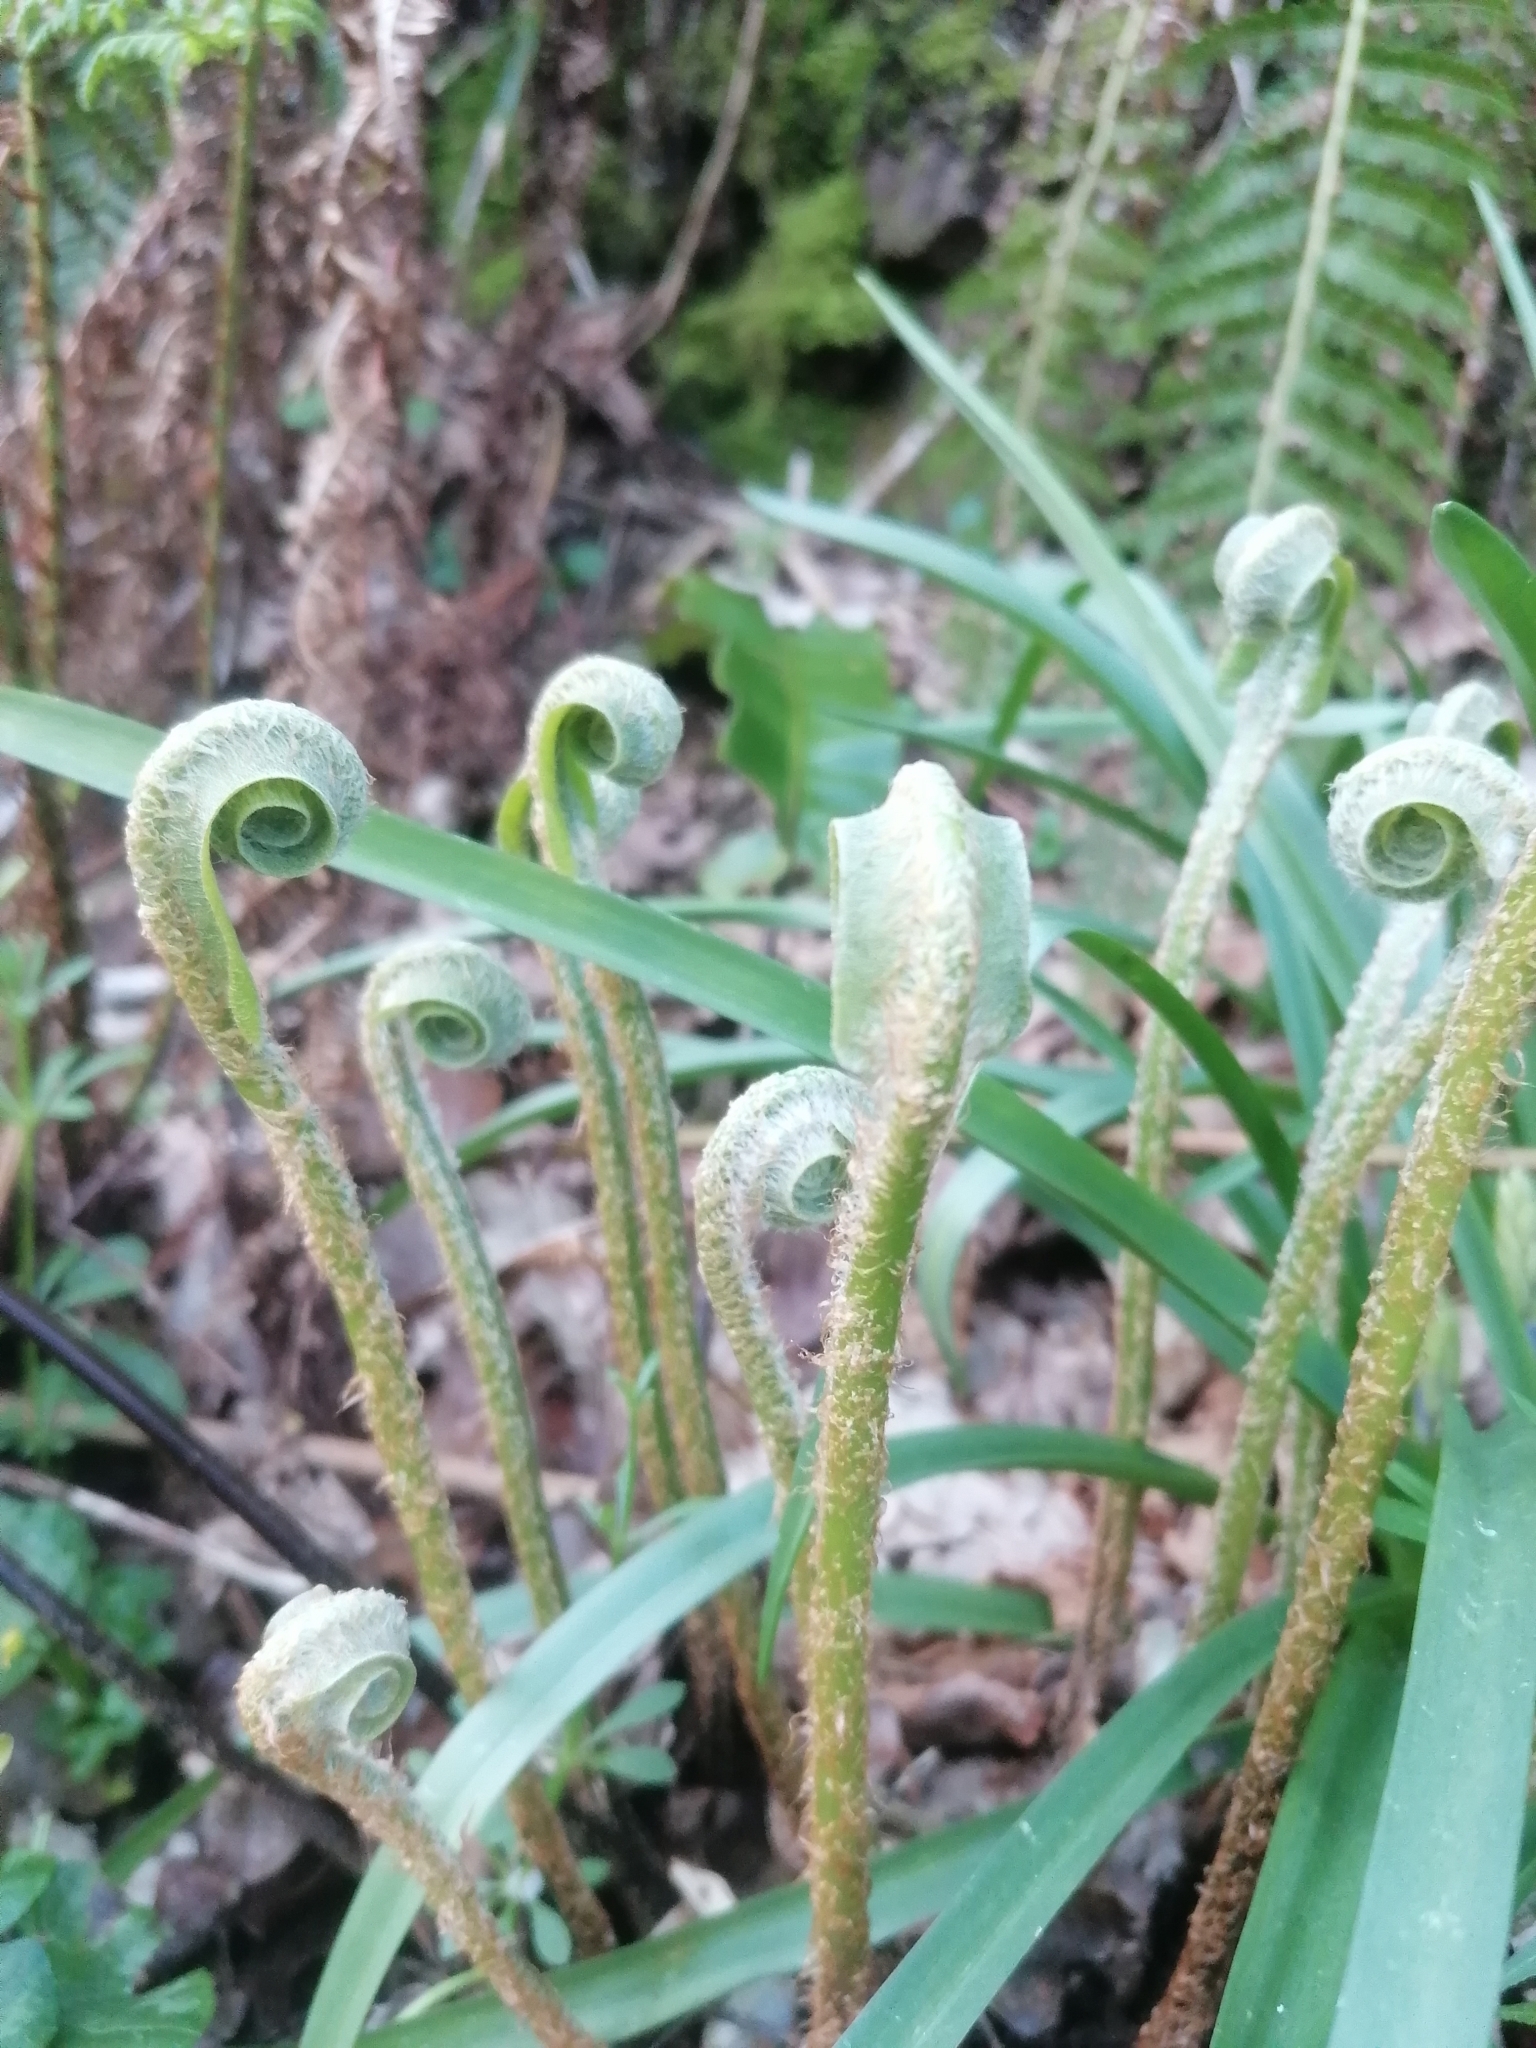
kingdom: Plantae
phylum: Tracheophyta
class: Polypodiopsida
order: Polypodiales
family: Aspleniaceae
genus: Asplenium
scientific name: Asplenium scolopendrium
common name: Hart's-tongue fern
